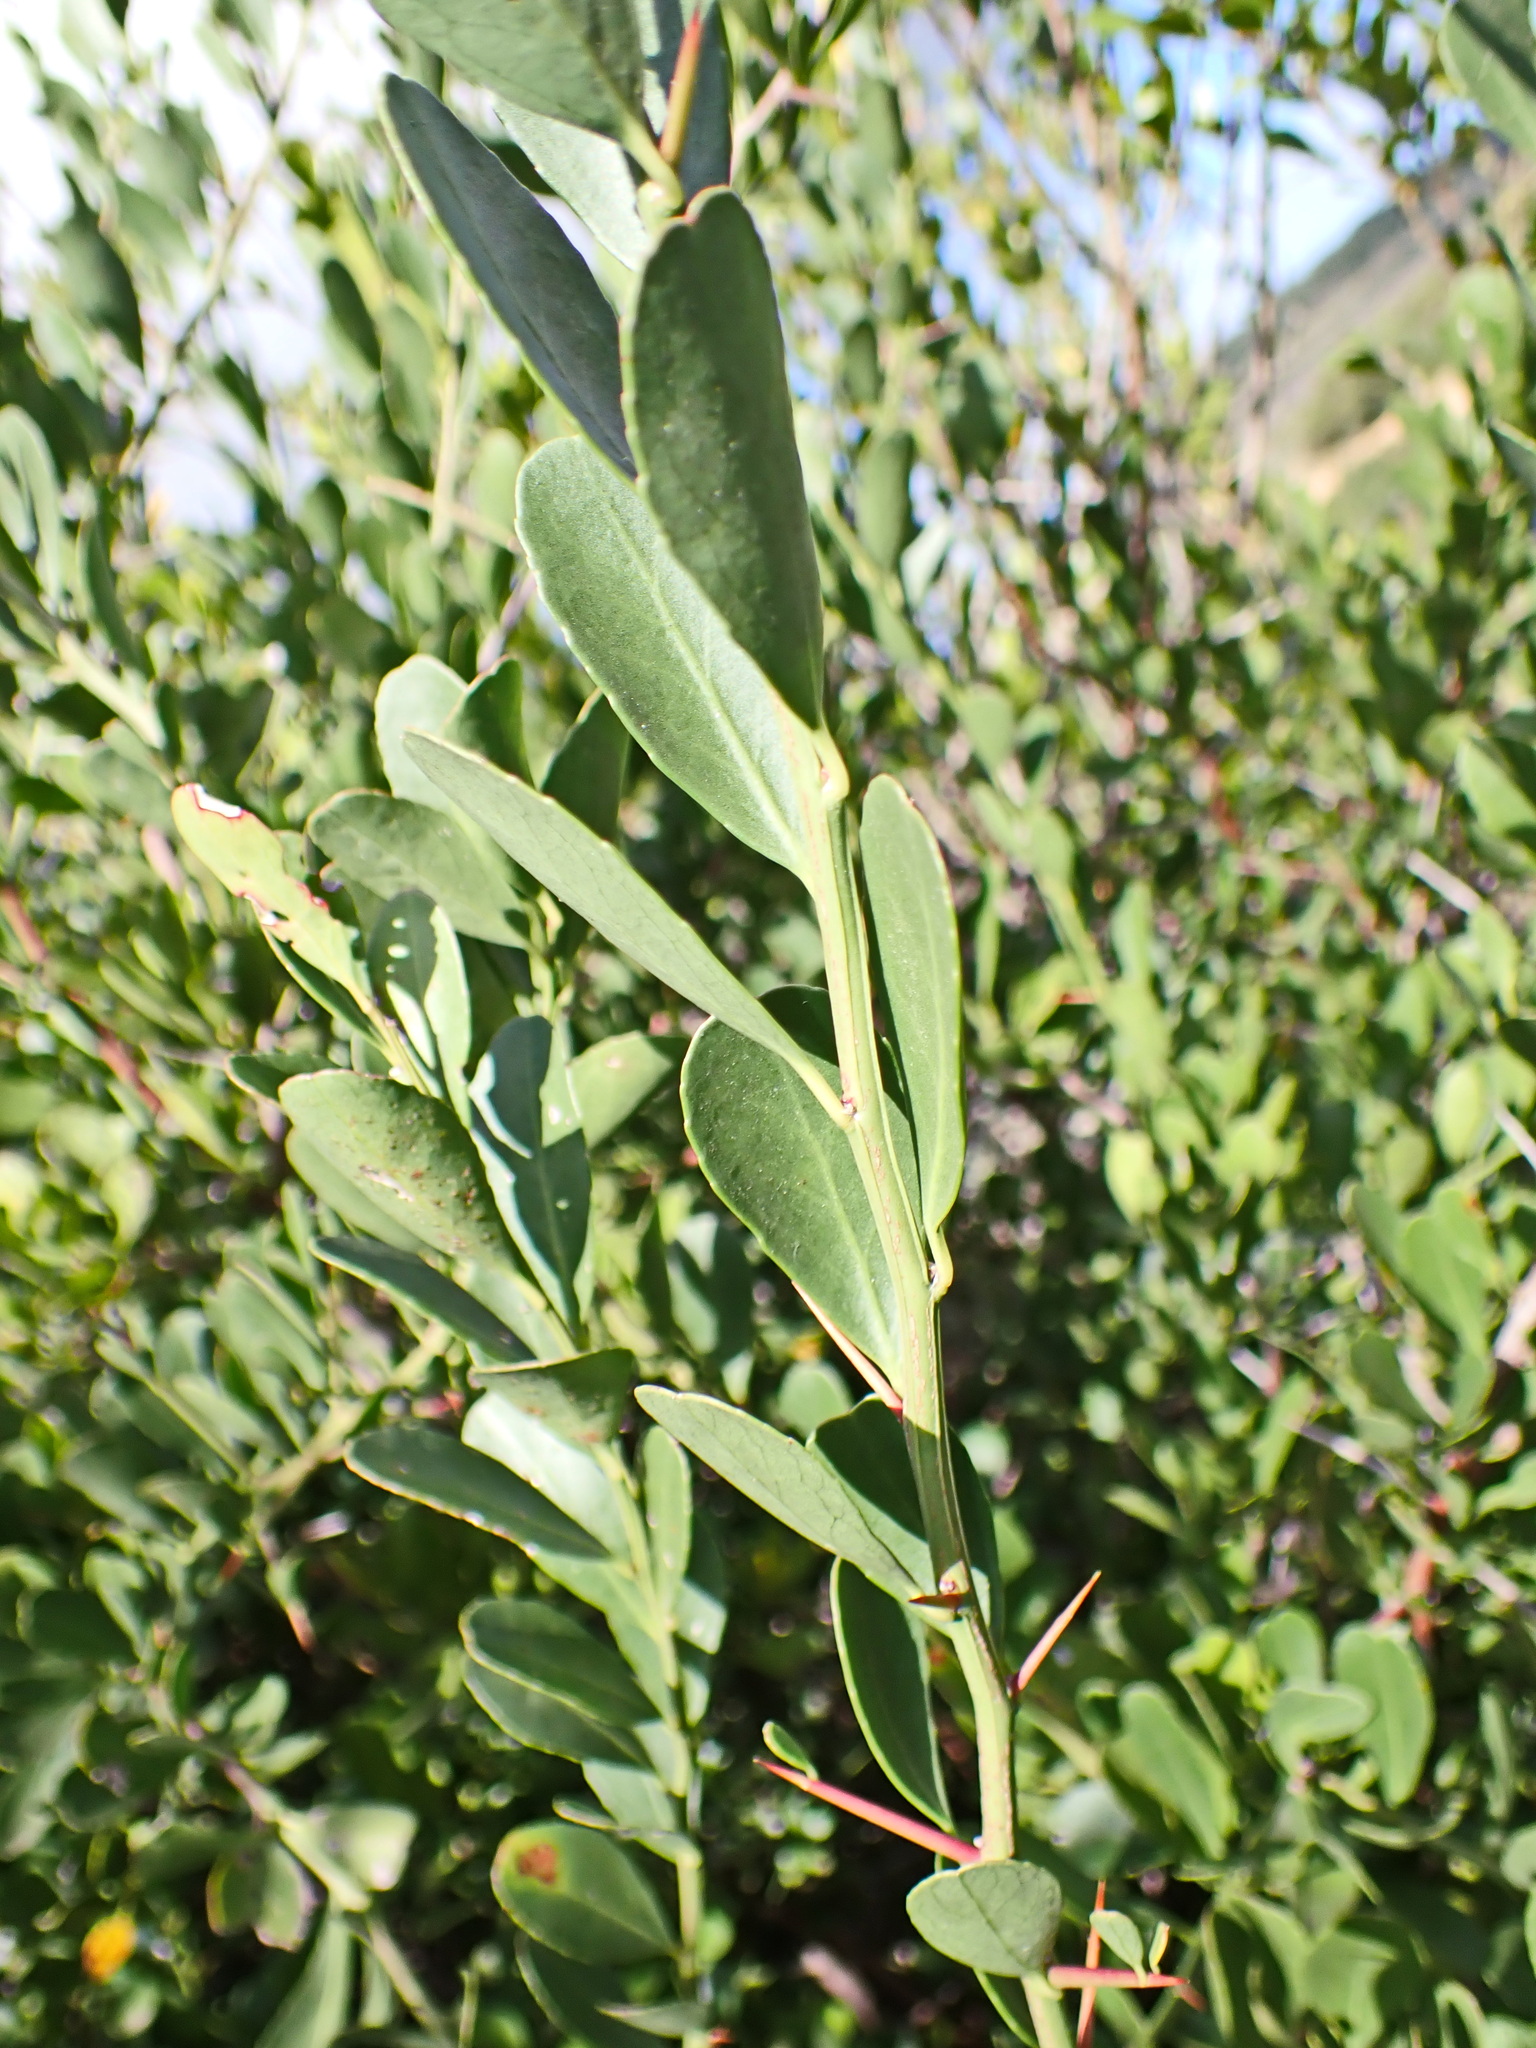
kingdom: Plantae
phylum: Tracheophyta
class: Magnoliopsida
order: Celastrales
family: Celastraceae
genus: Gymnosporia
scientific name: Gymnosporia buxifolia
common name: Common spike-thorn
